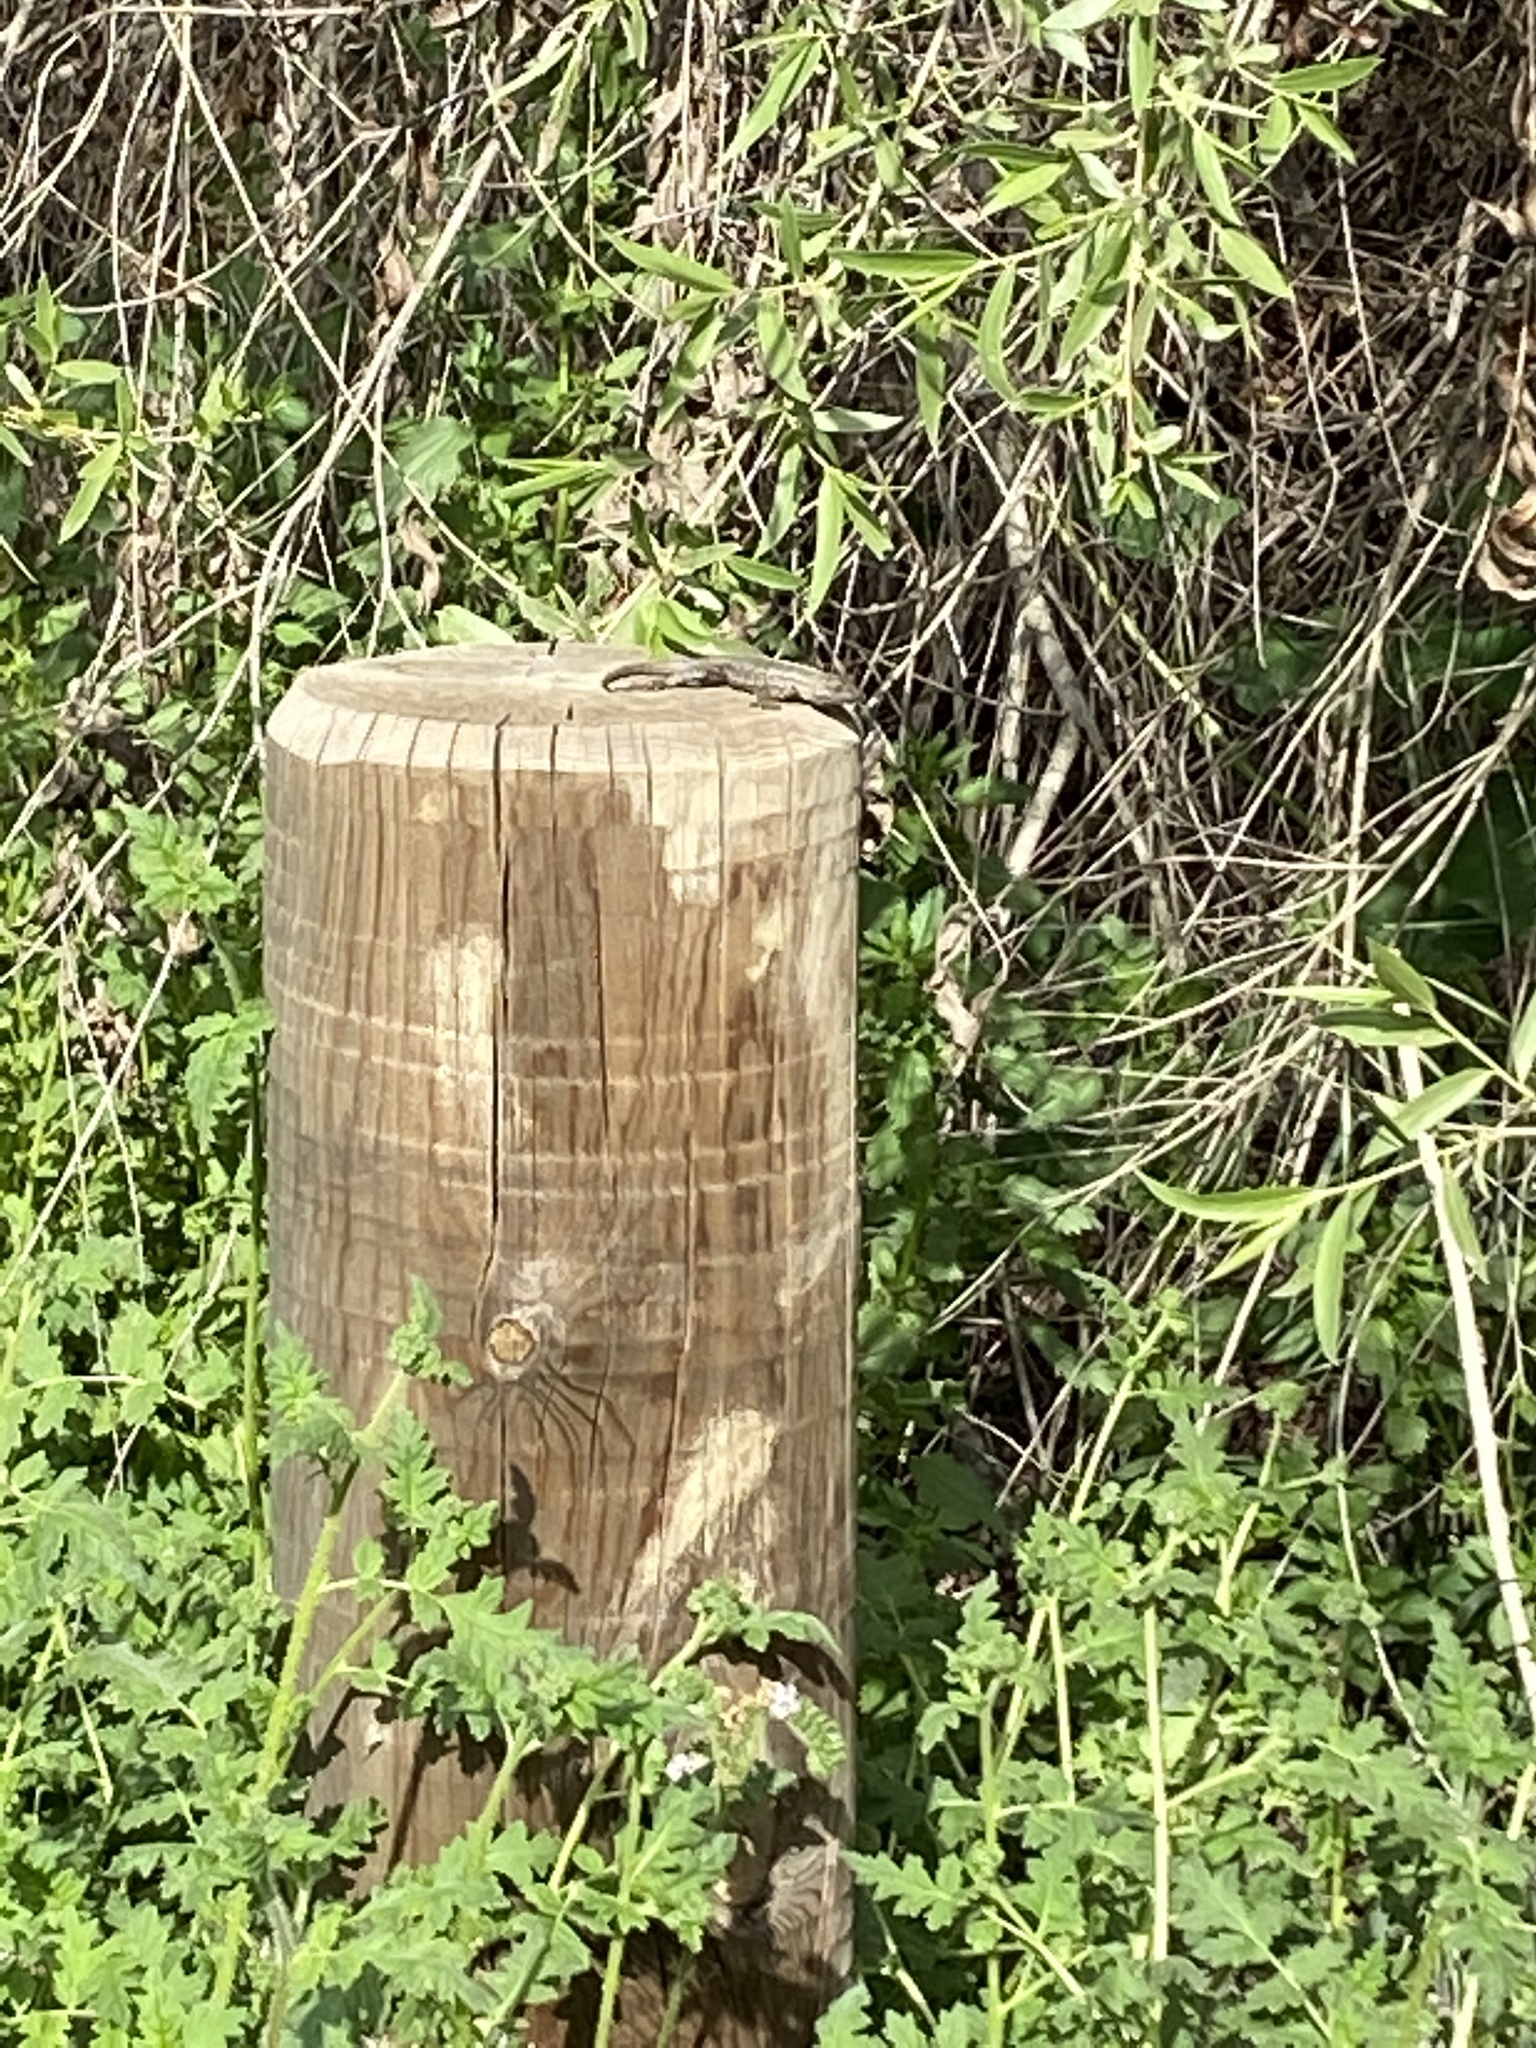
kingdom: Animalia
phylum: Chordata
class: Squamata
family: Phrynosomatidae
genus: Sceloporus
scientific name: Sceloporus occidentalis
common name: Western fence lizard
